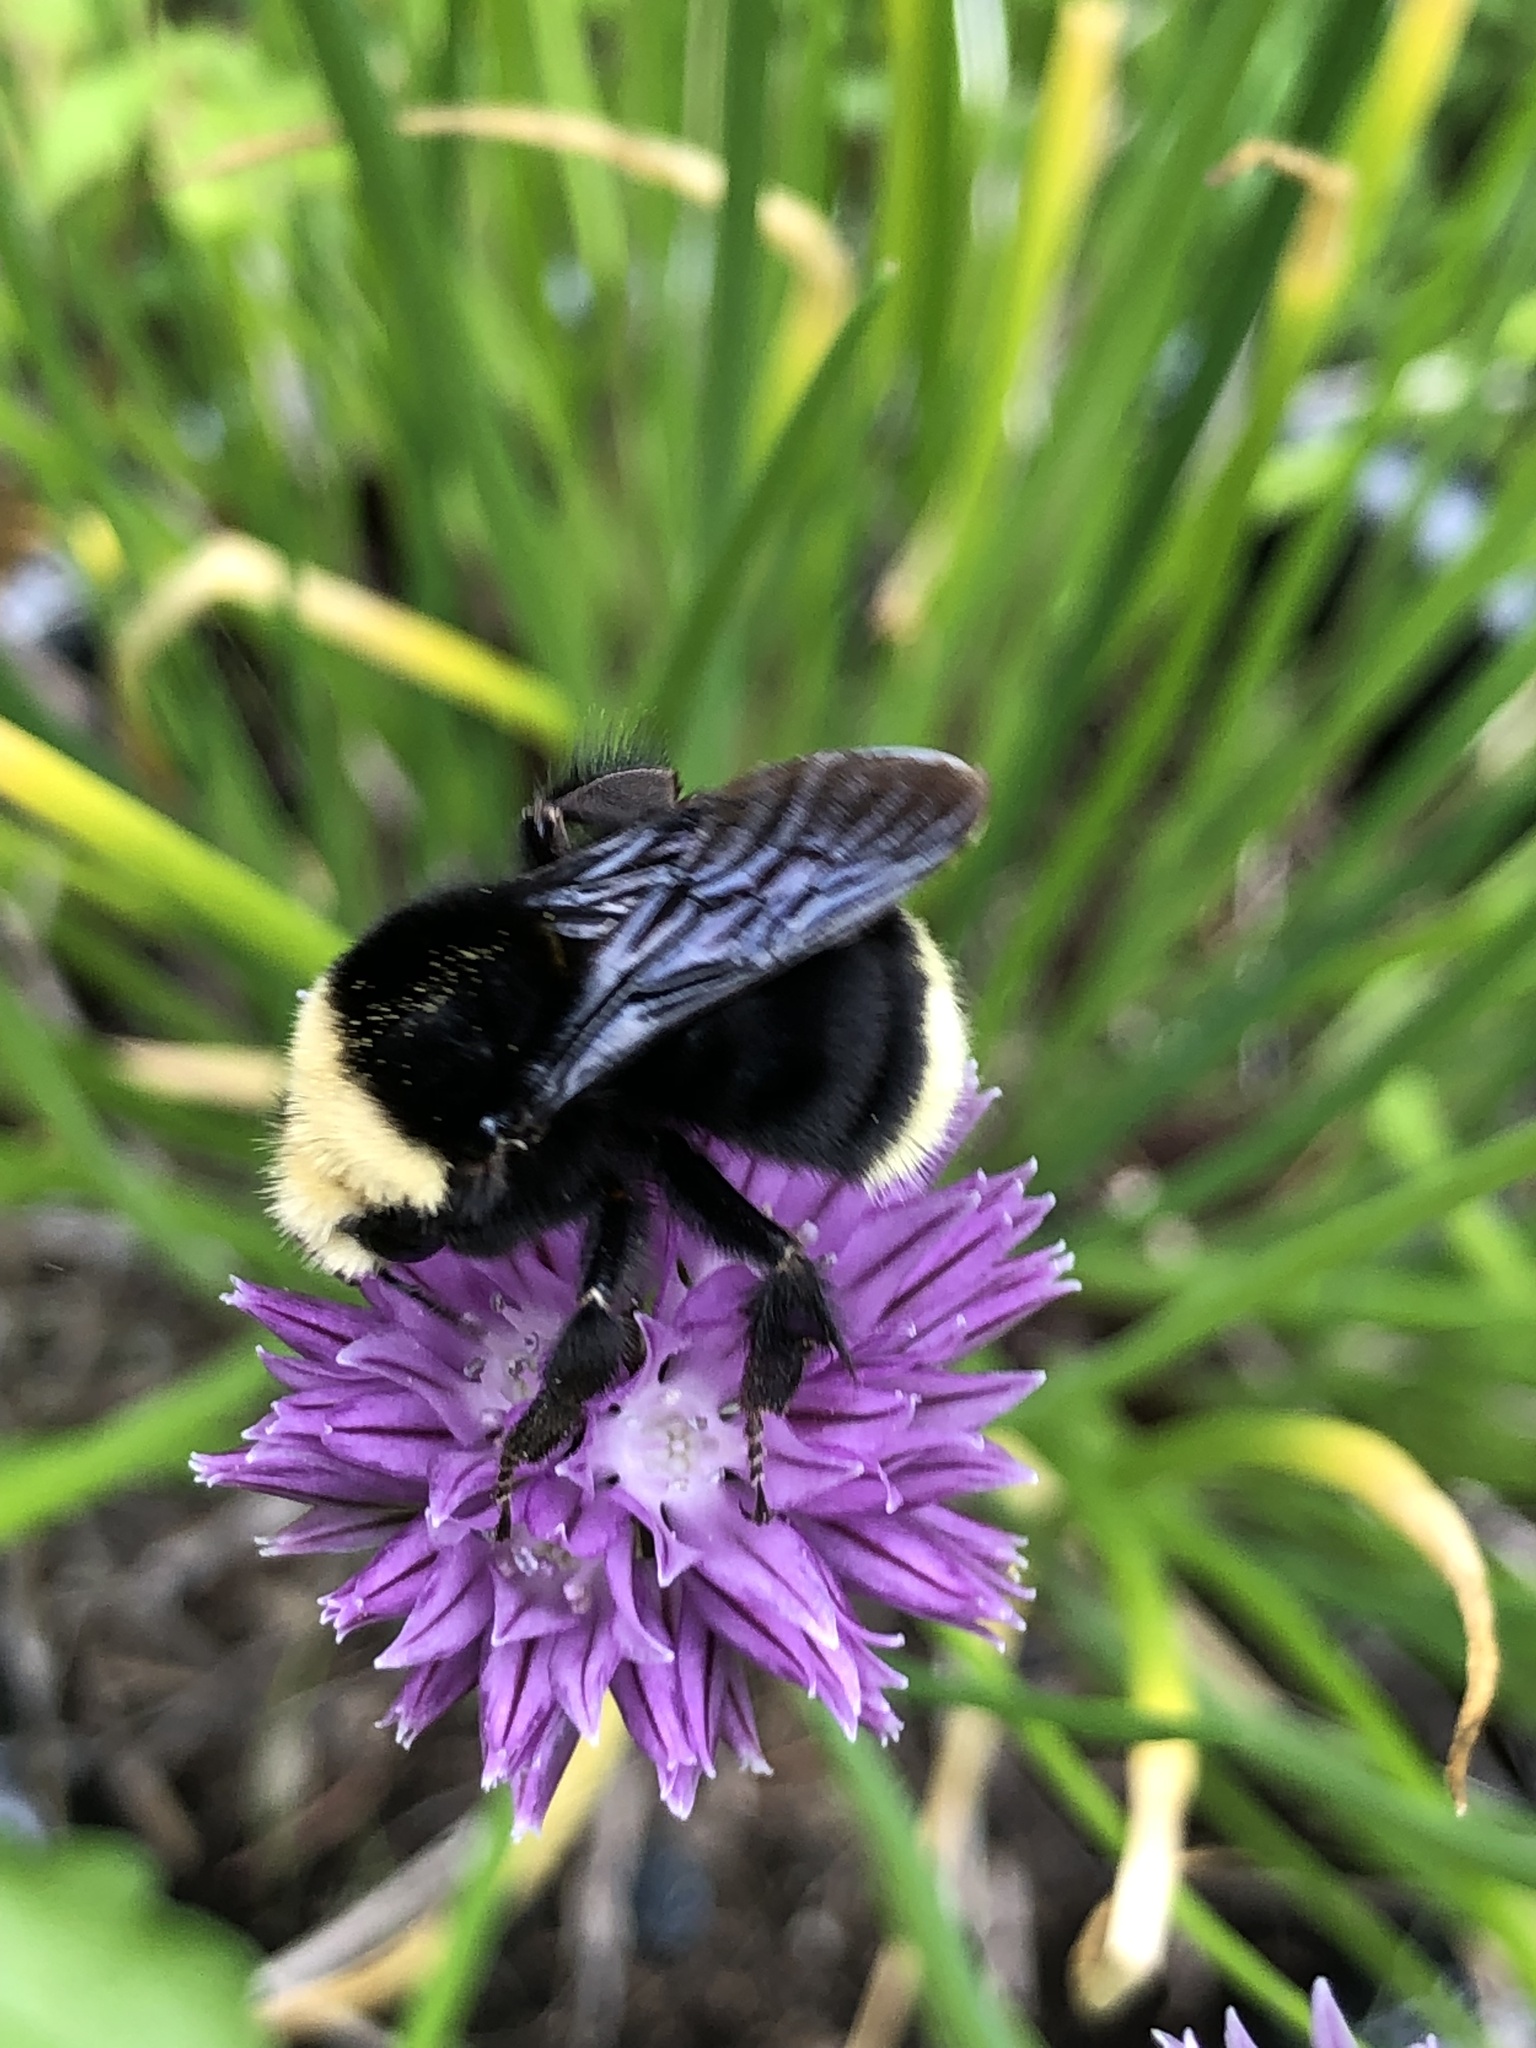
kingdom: Animalia
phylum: Arthropoda
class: Insecta
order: Hymenoptera
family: Apidae
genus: Bombus
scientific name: Bombus vosnesenskii
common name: Vosnesensky bumble bee
